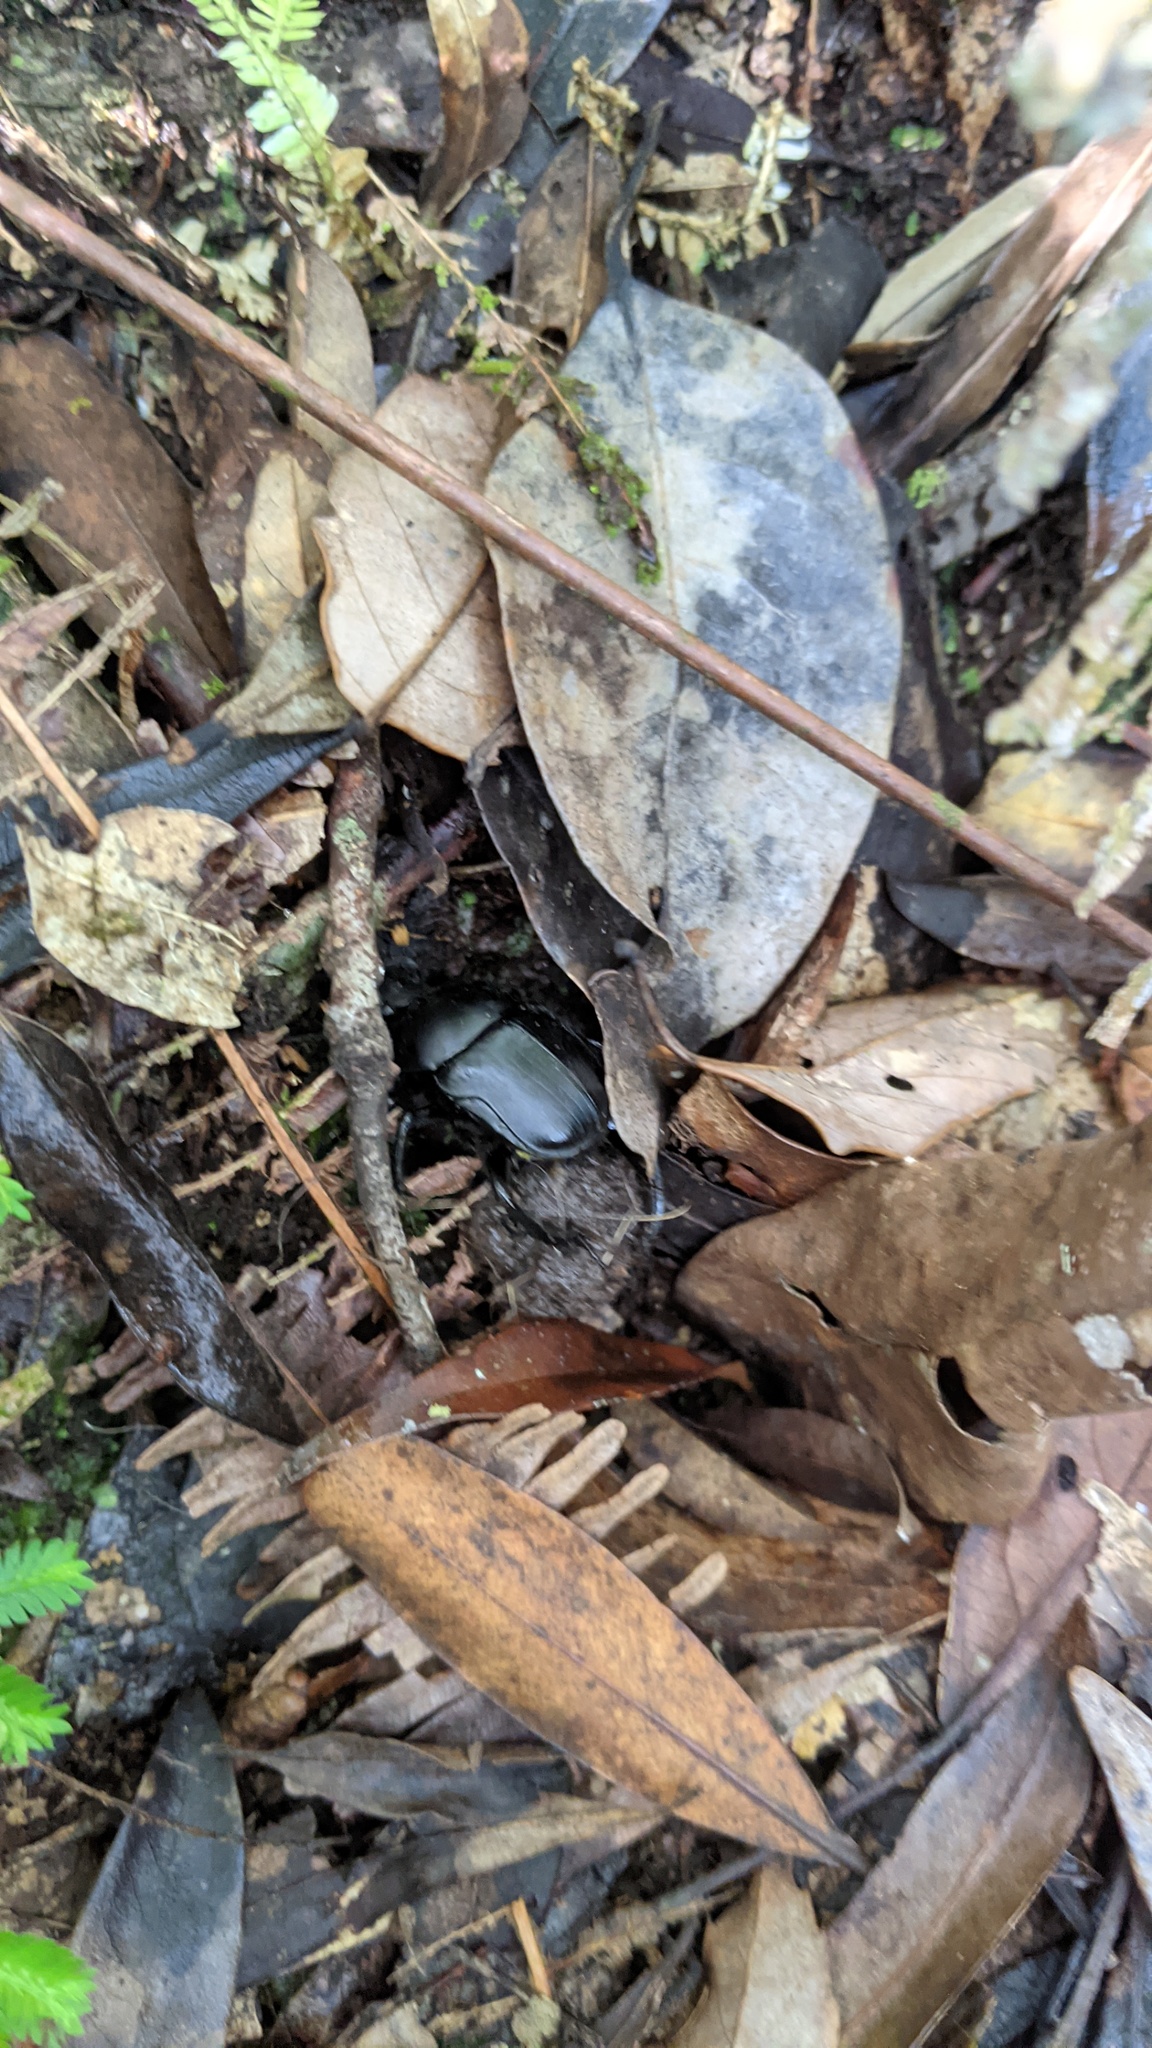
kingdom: Animalia
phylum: Arthropoda
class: Insecta
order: Coleoptera
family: Scarabaeidae
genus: Paragymnopleurus
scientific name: Paragymnopleurus ambiguus
